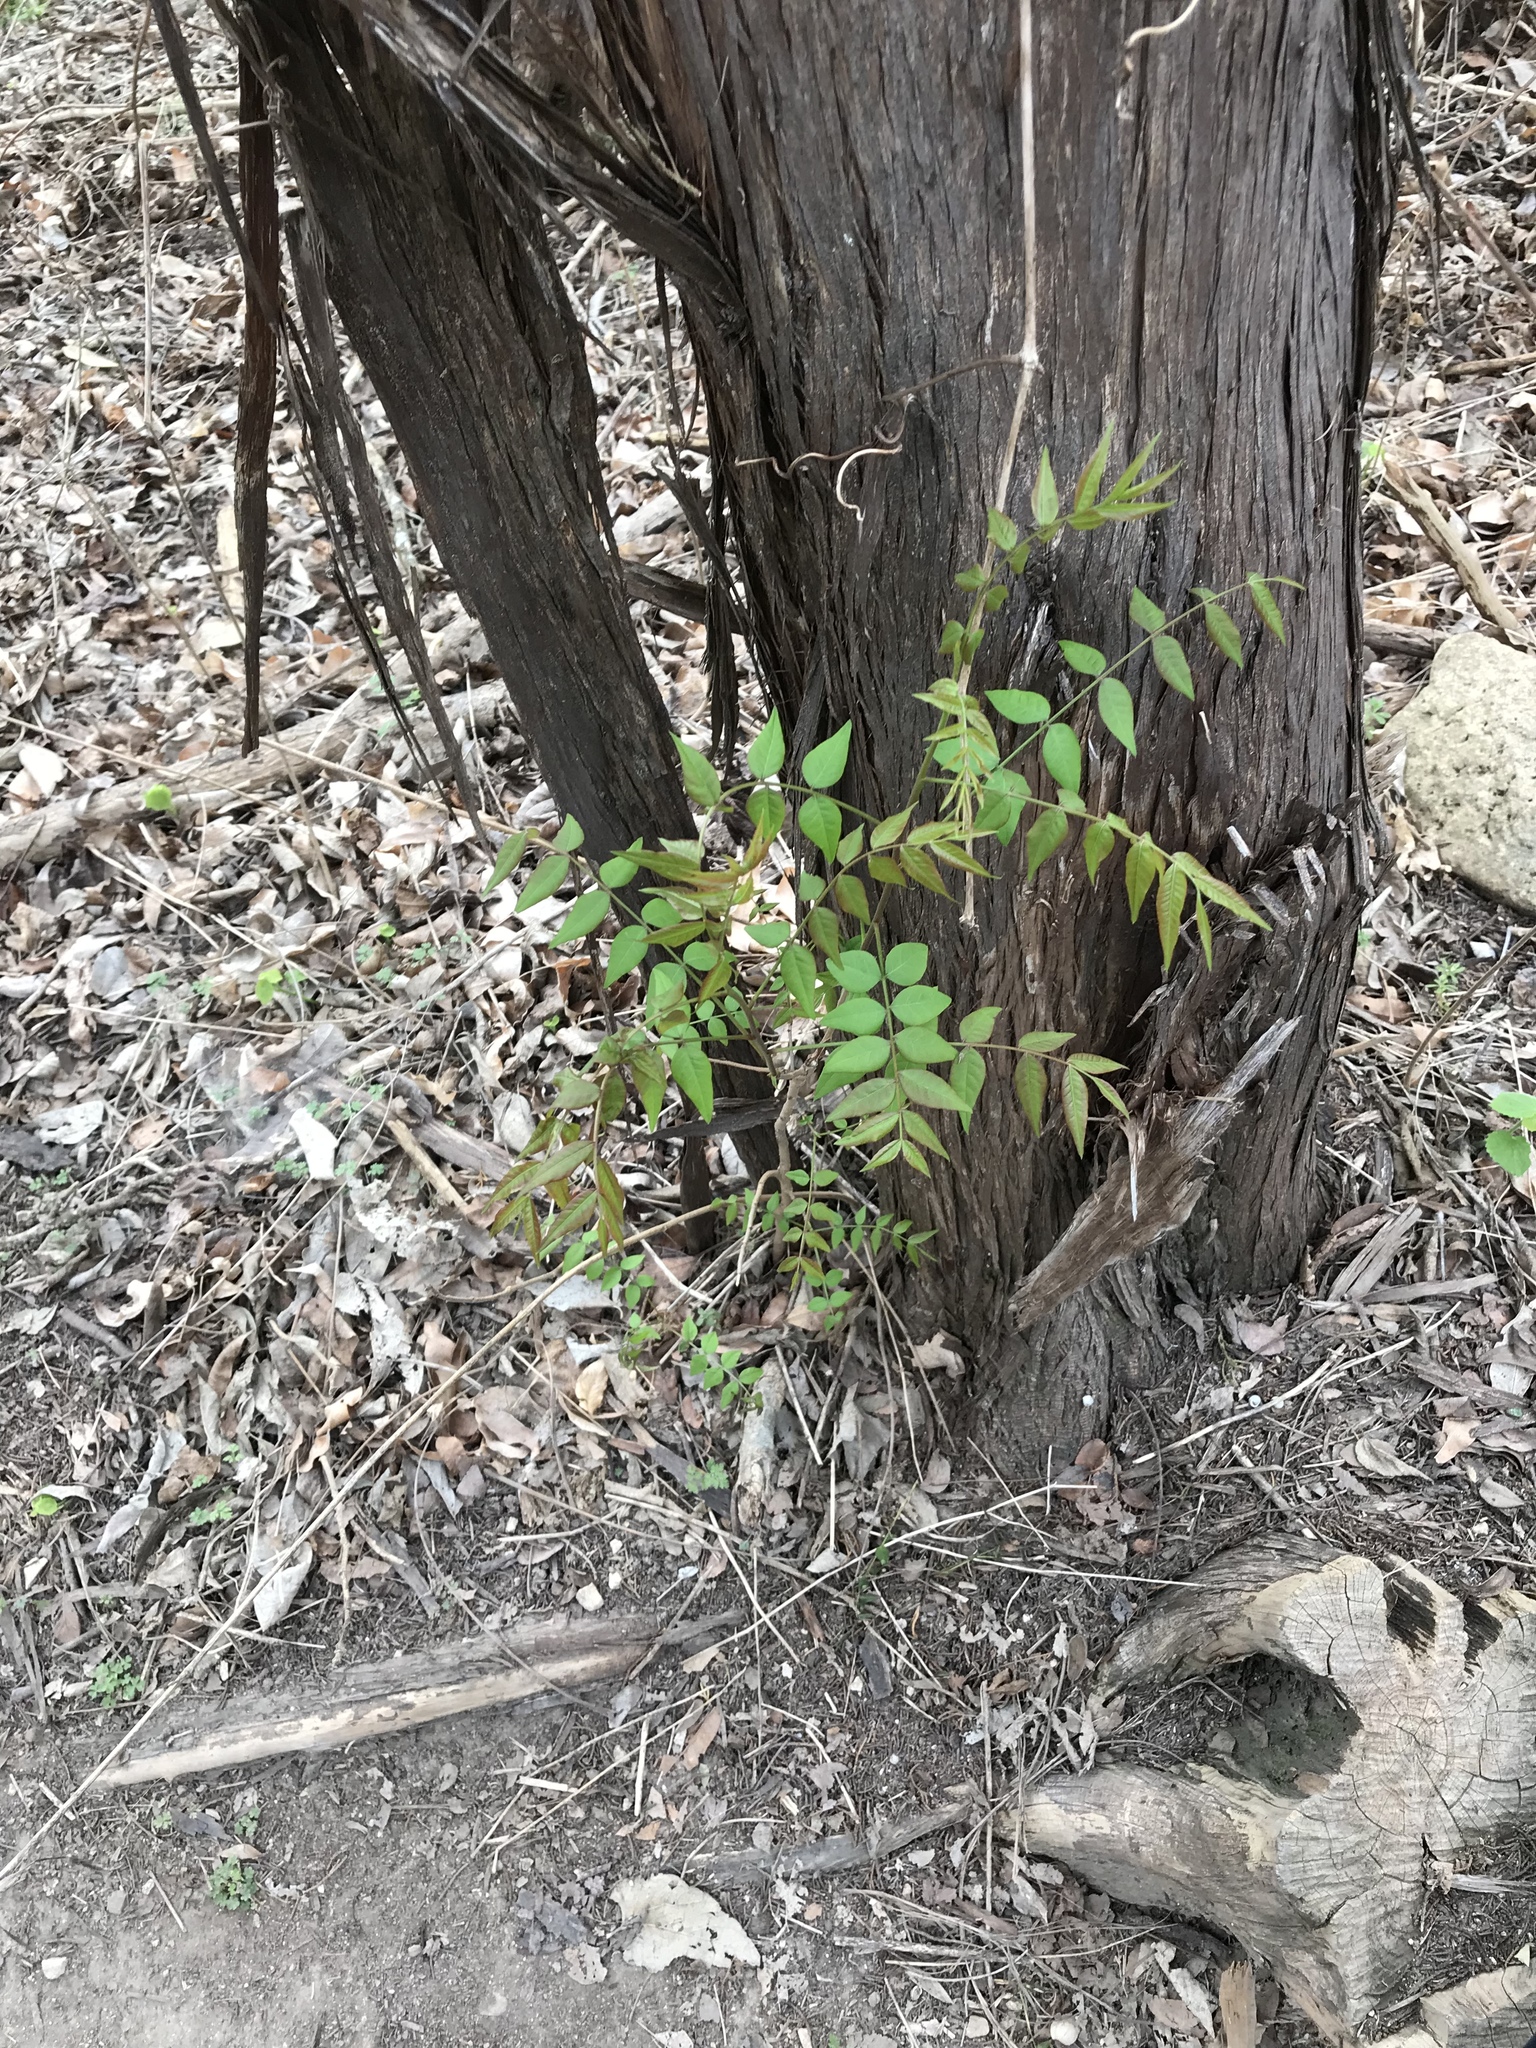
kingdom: Plantae
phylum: Tracheophyta
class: Magnoliopsida
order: Sapindales
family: Anacardiaceae
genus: Pistacia
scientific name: Pistacia chinensis
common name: Chinese pistache
